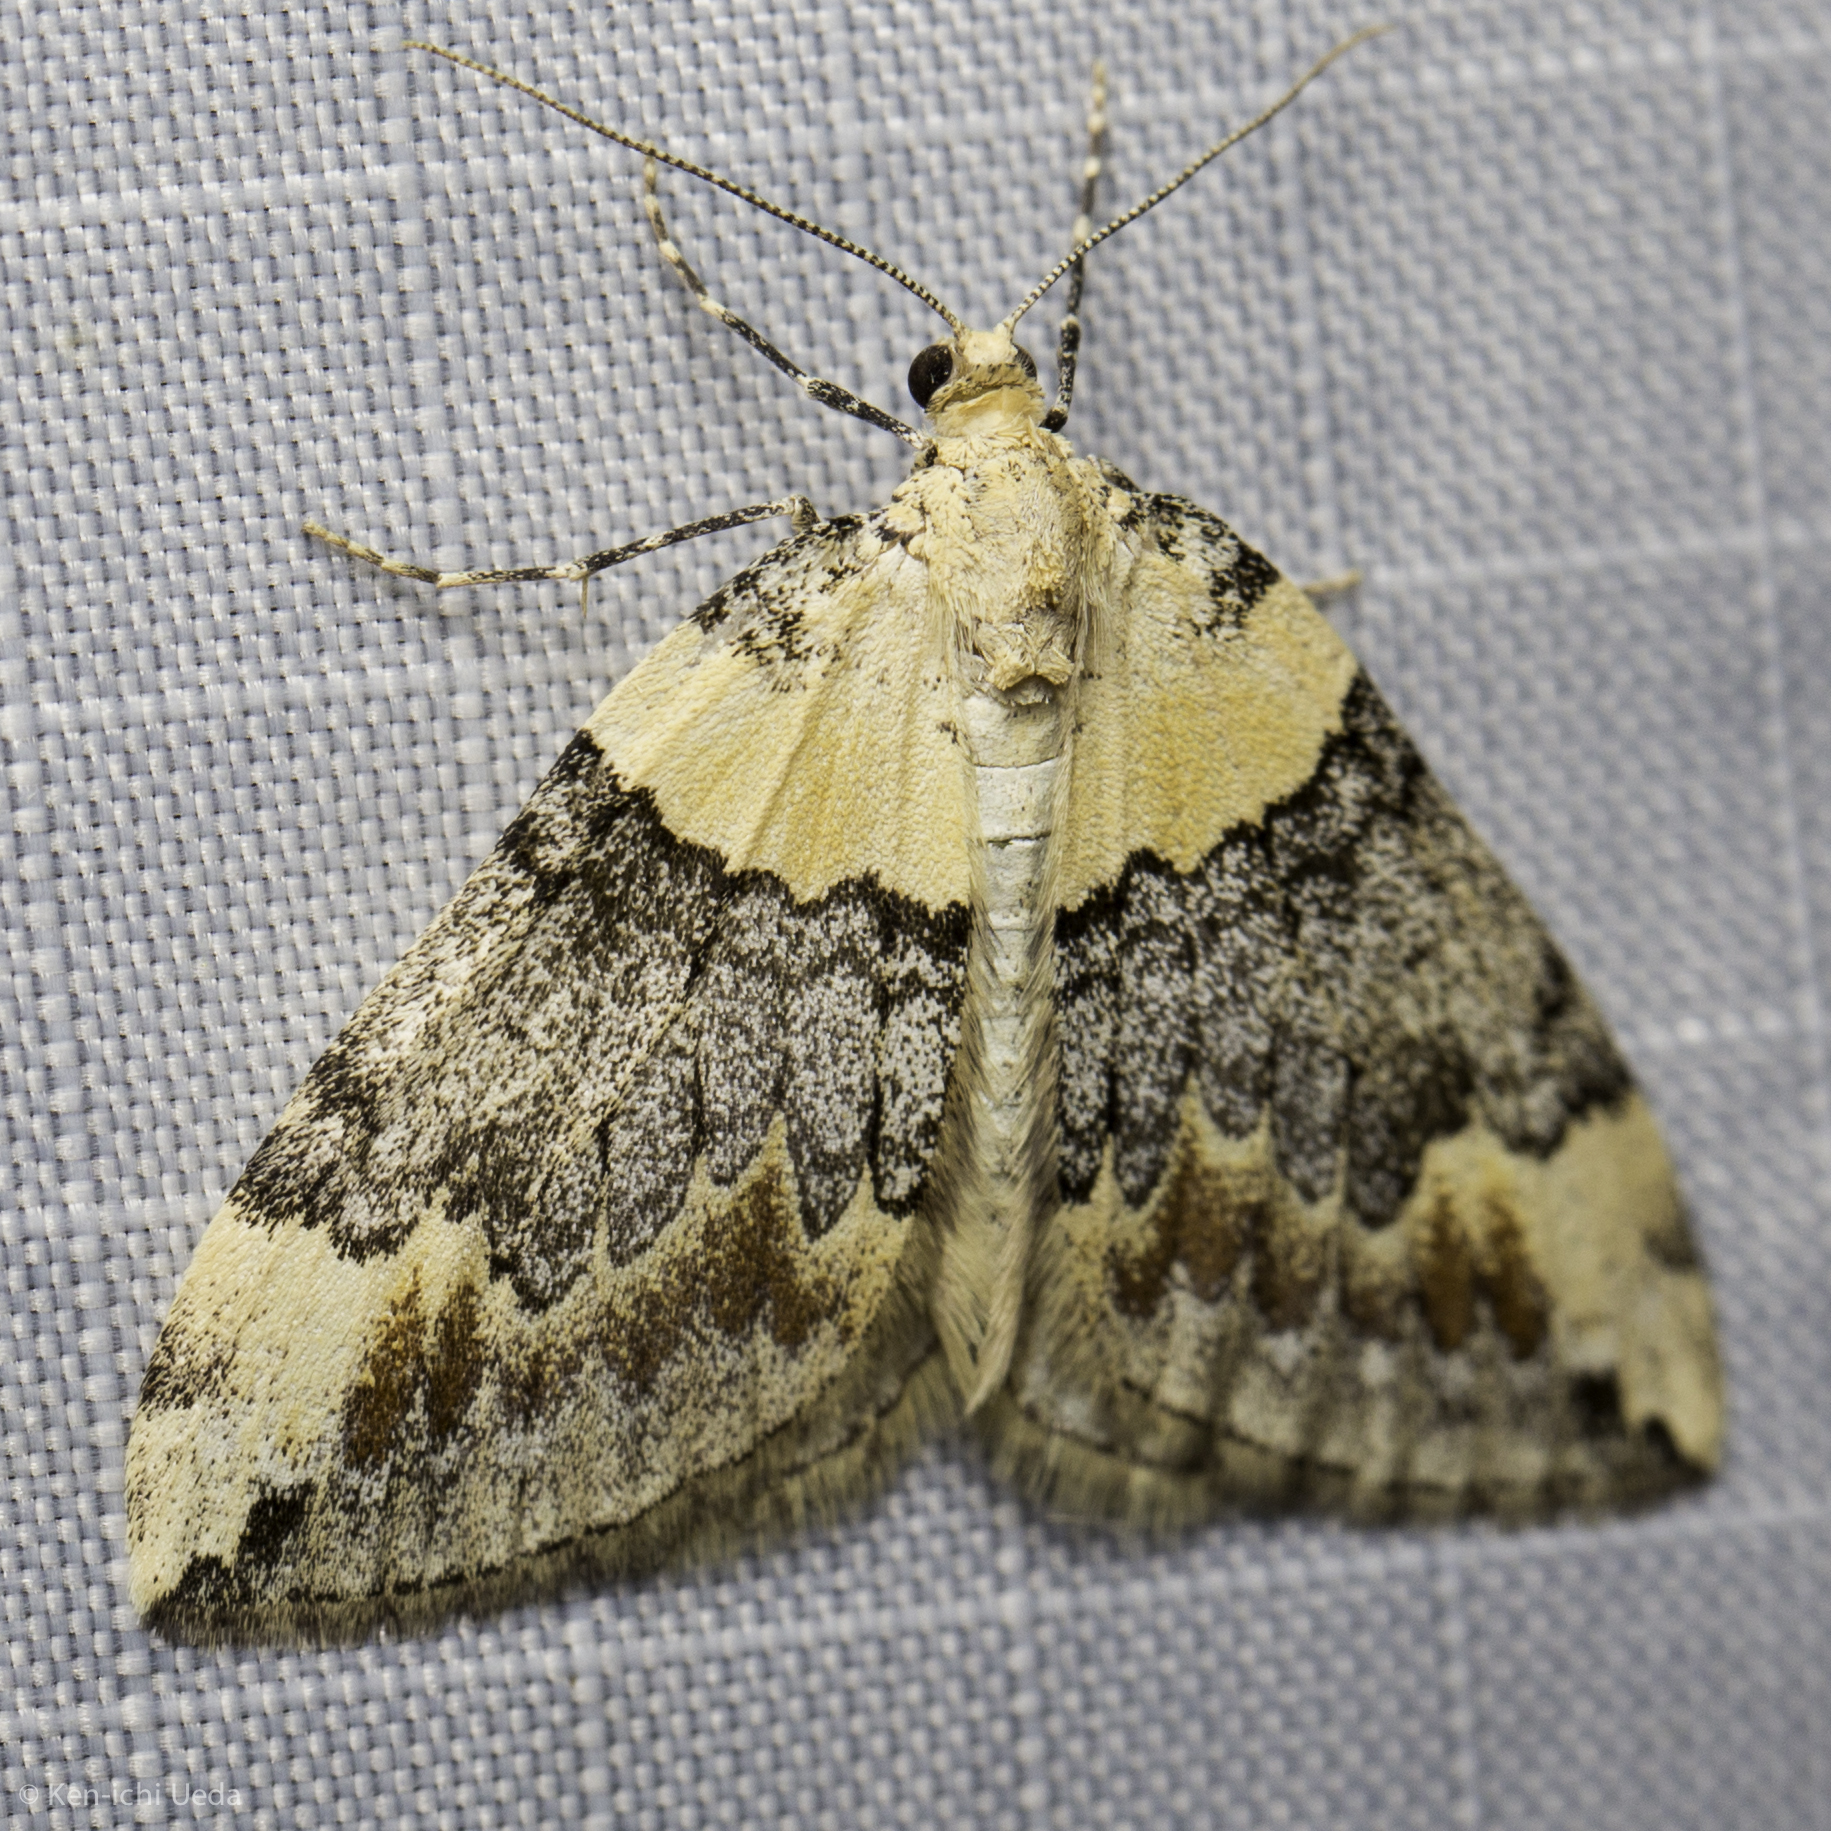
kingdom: Animalia
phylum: Arthropoda
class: Insecta
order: Lepidoptera
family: Geometridae
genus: Dysstroma
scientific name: Dysstroma brunneata
